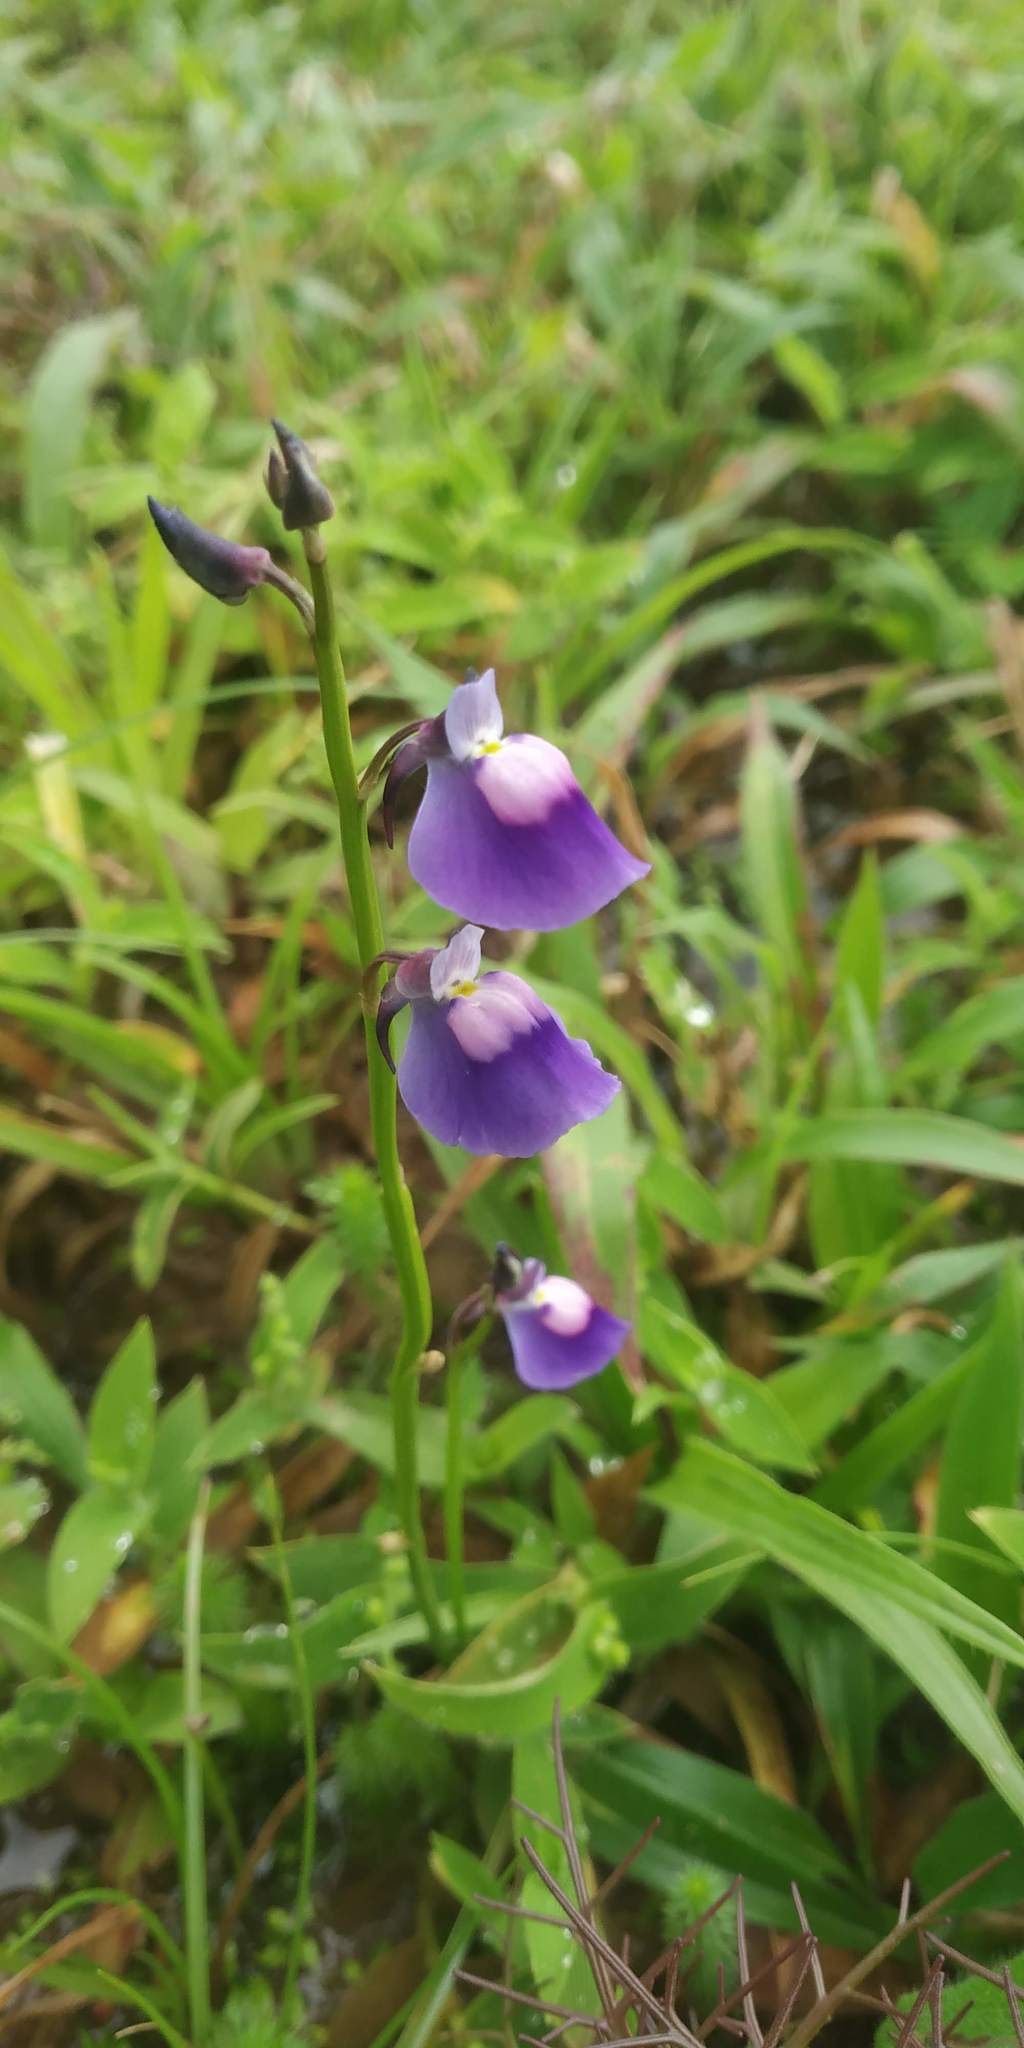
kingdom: Plantae
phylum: Tracheophyta
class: Magnoliopsida
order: Lamiales
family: Lentibulariaceae
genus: Utricularia
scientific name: Utricularia arcuata
